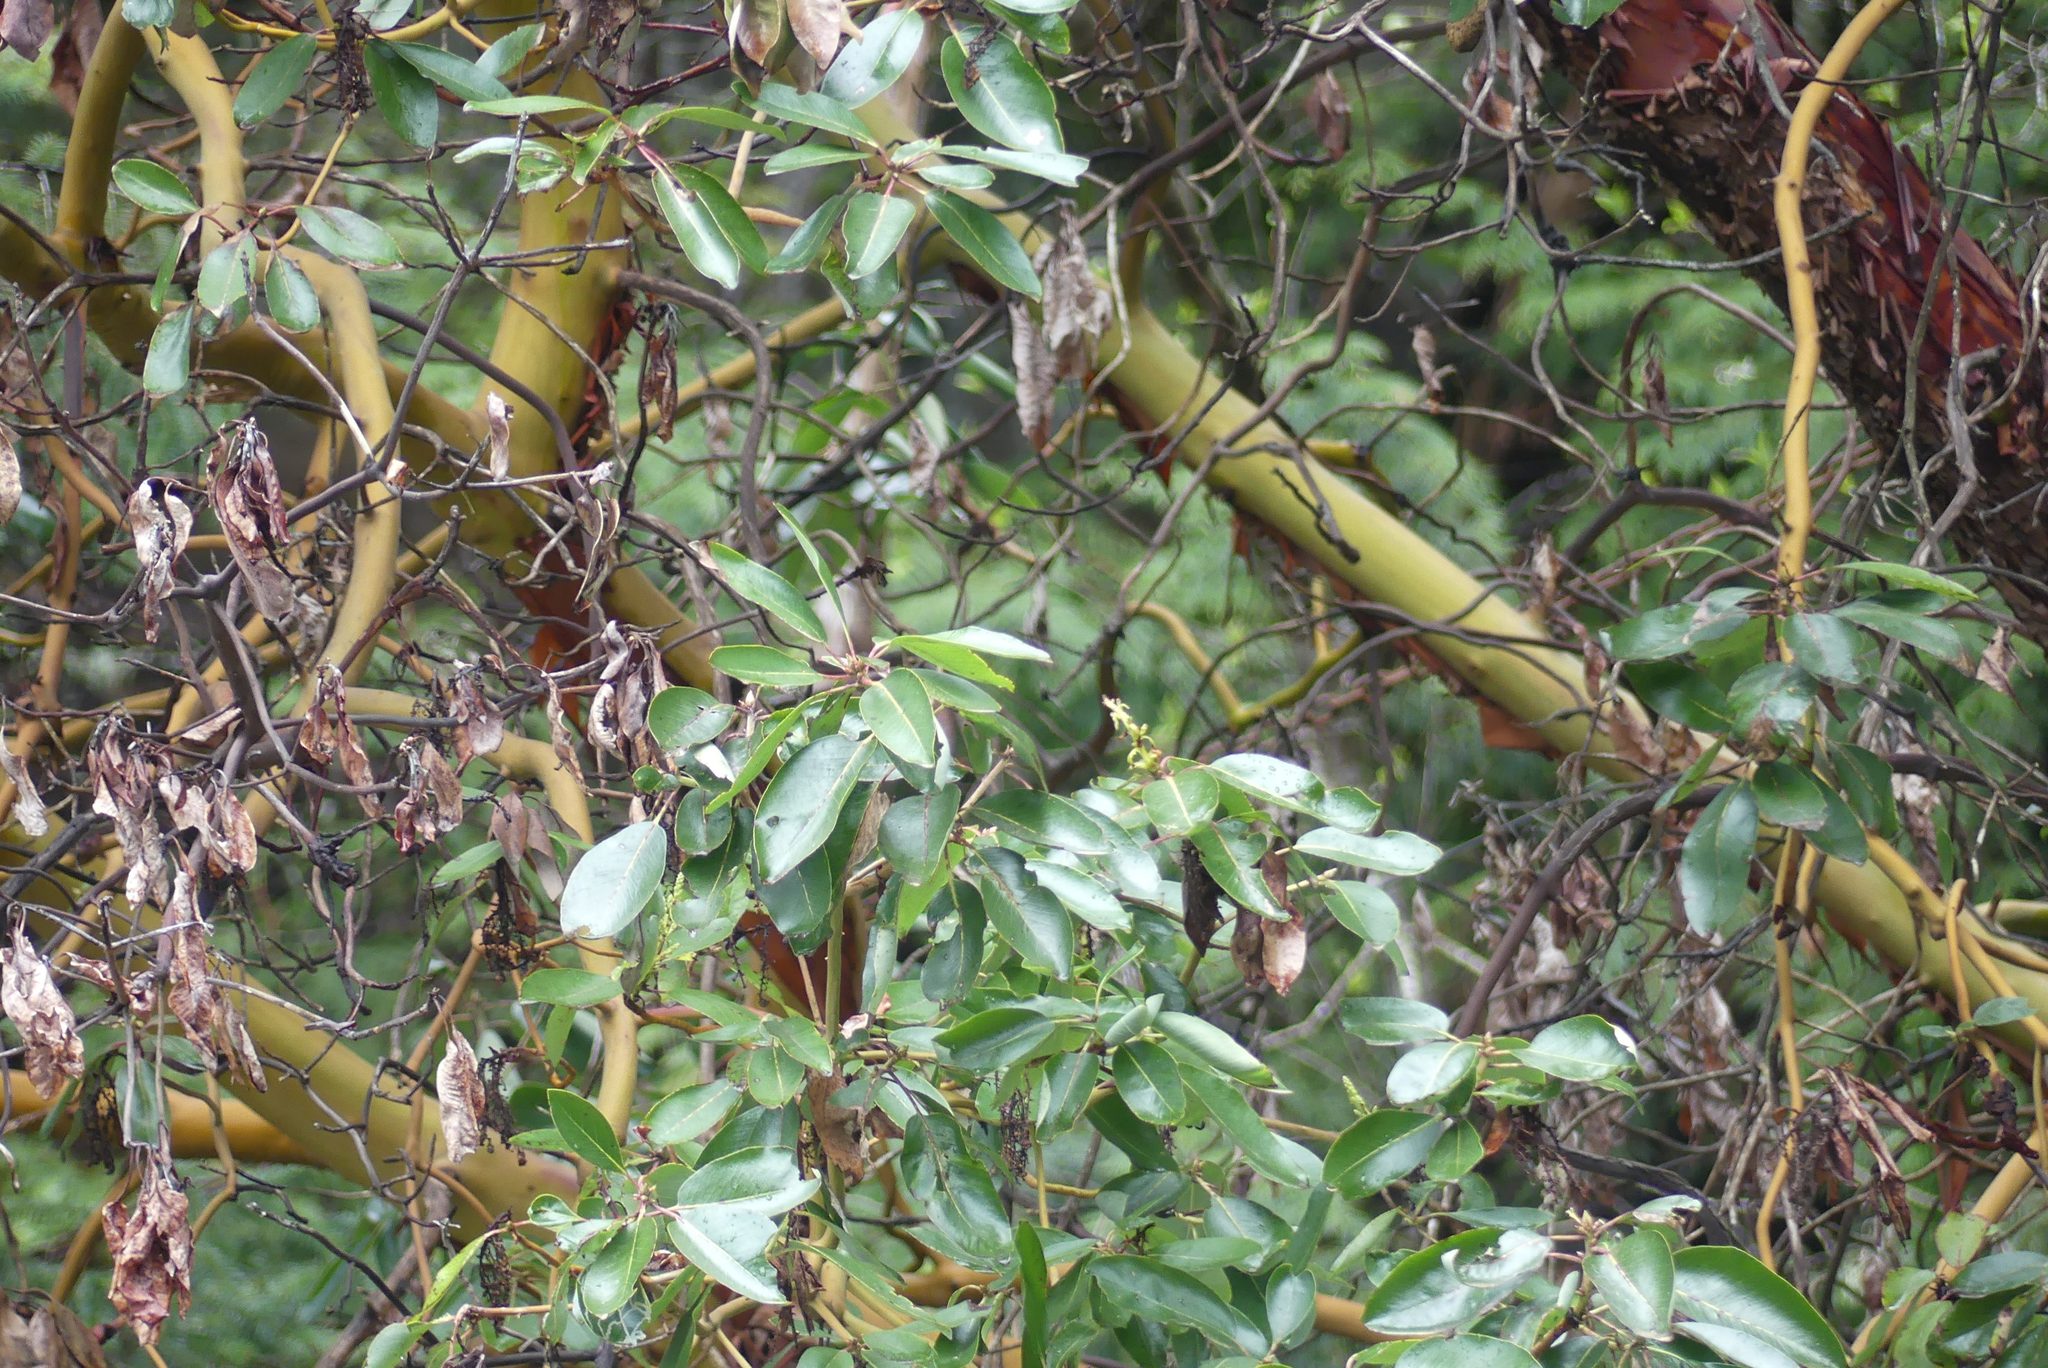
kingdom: Plantae
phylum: Tracheophyta
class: Magnoliopsida
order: Ericales
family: Ericaceae
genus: Arbutus
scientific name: Arbutus menziesii
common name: Pacific madrone
